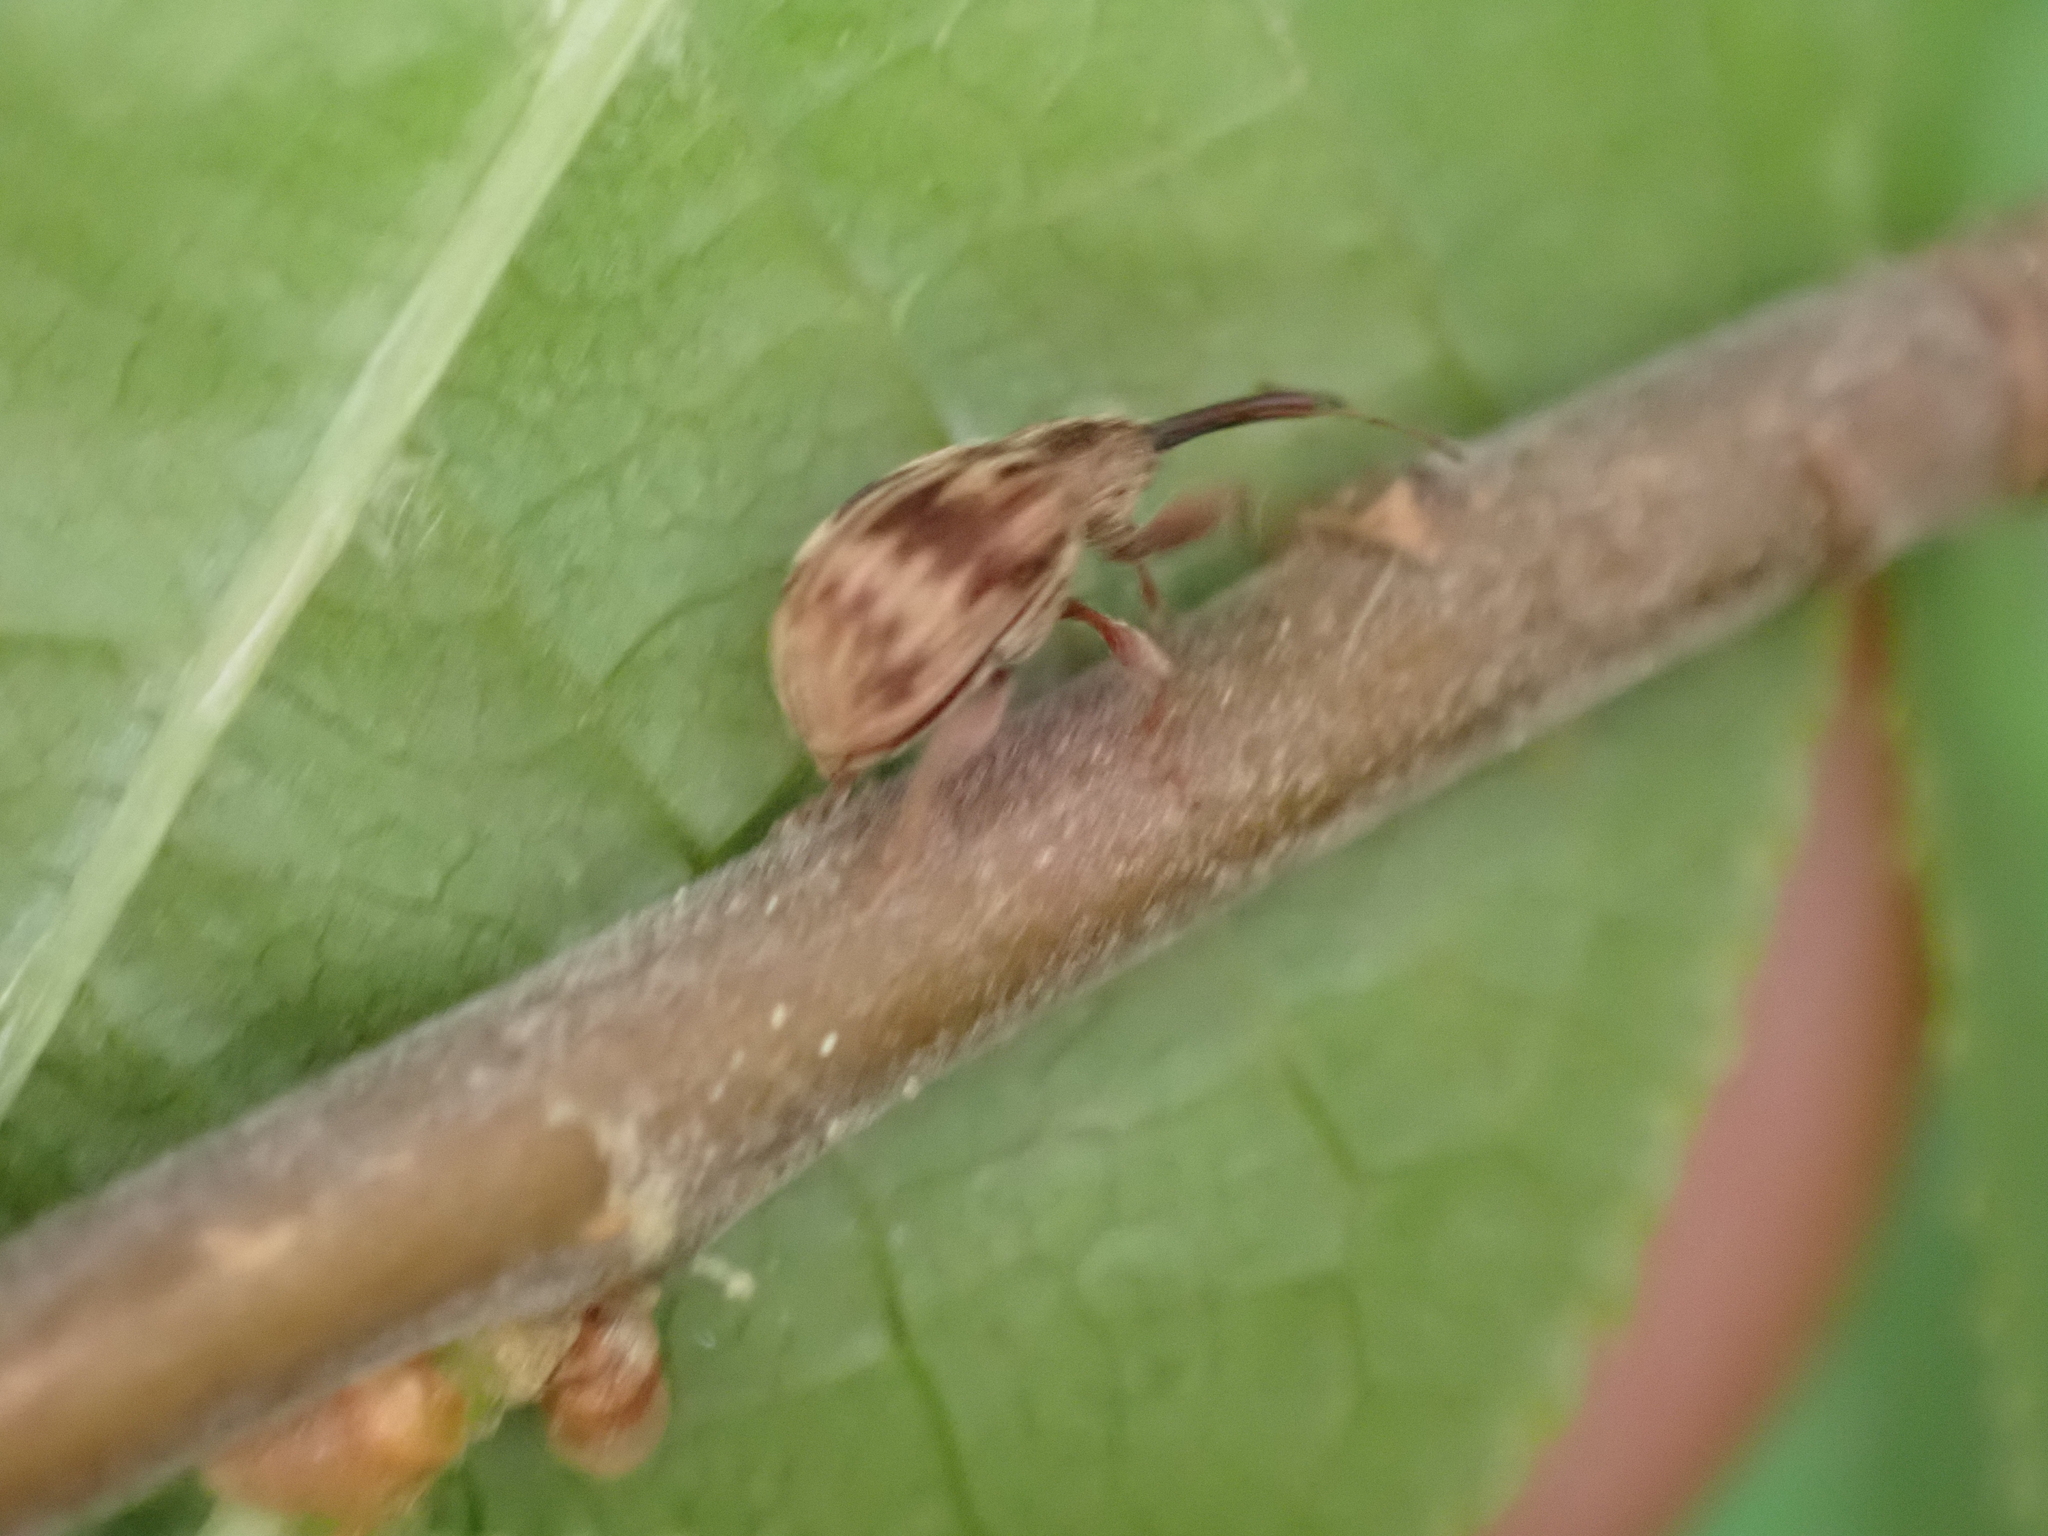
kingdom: Animalia
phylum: Arthropoda
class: Insecta
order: Coleoptera
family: Curculionidae
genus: Anthonomus
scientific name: Anthonomus rectirostris
